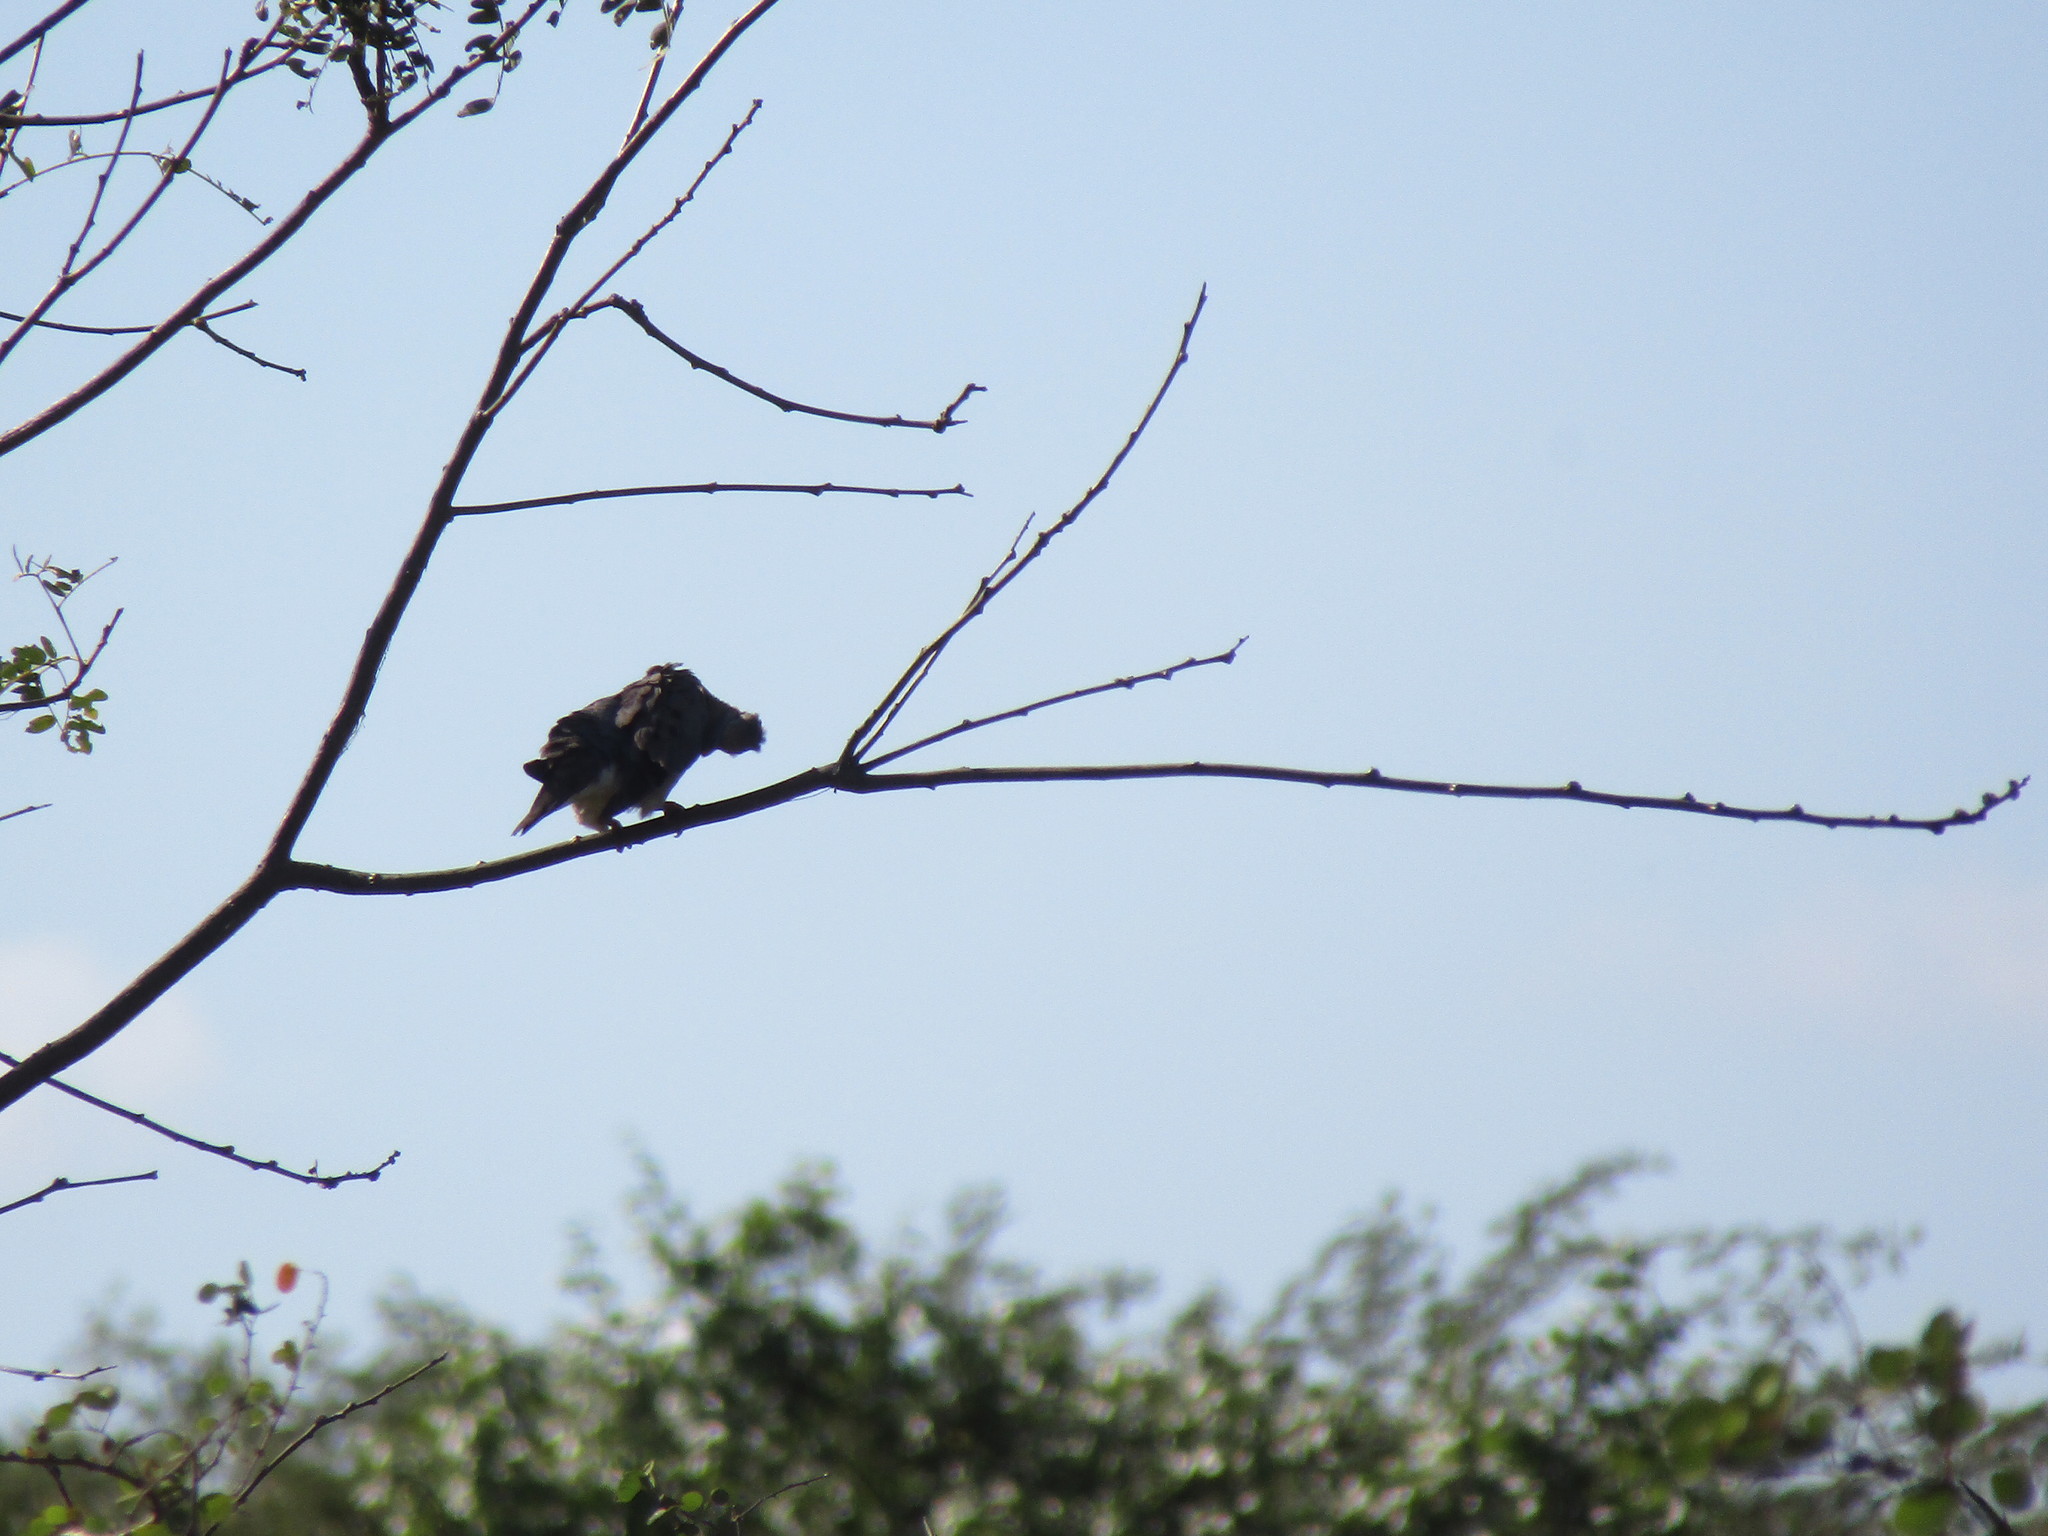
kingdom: Animalia
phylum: Chordata
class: Aves
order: Columbiformes
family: Columbidae
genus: Zenaida
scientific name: Zenaida auriculata
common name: Eared dove
